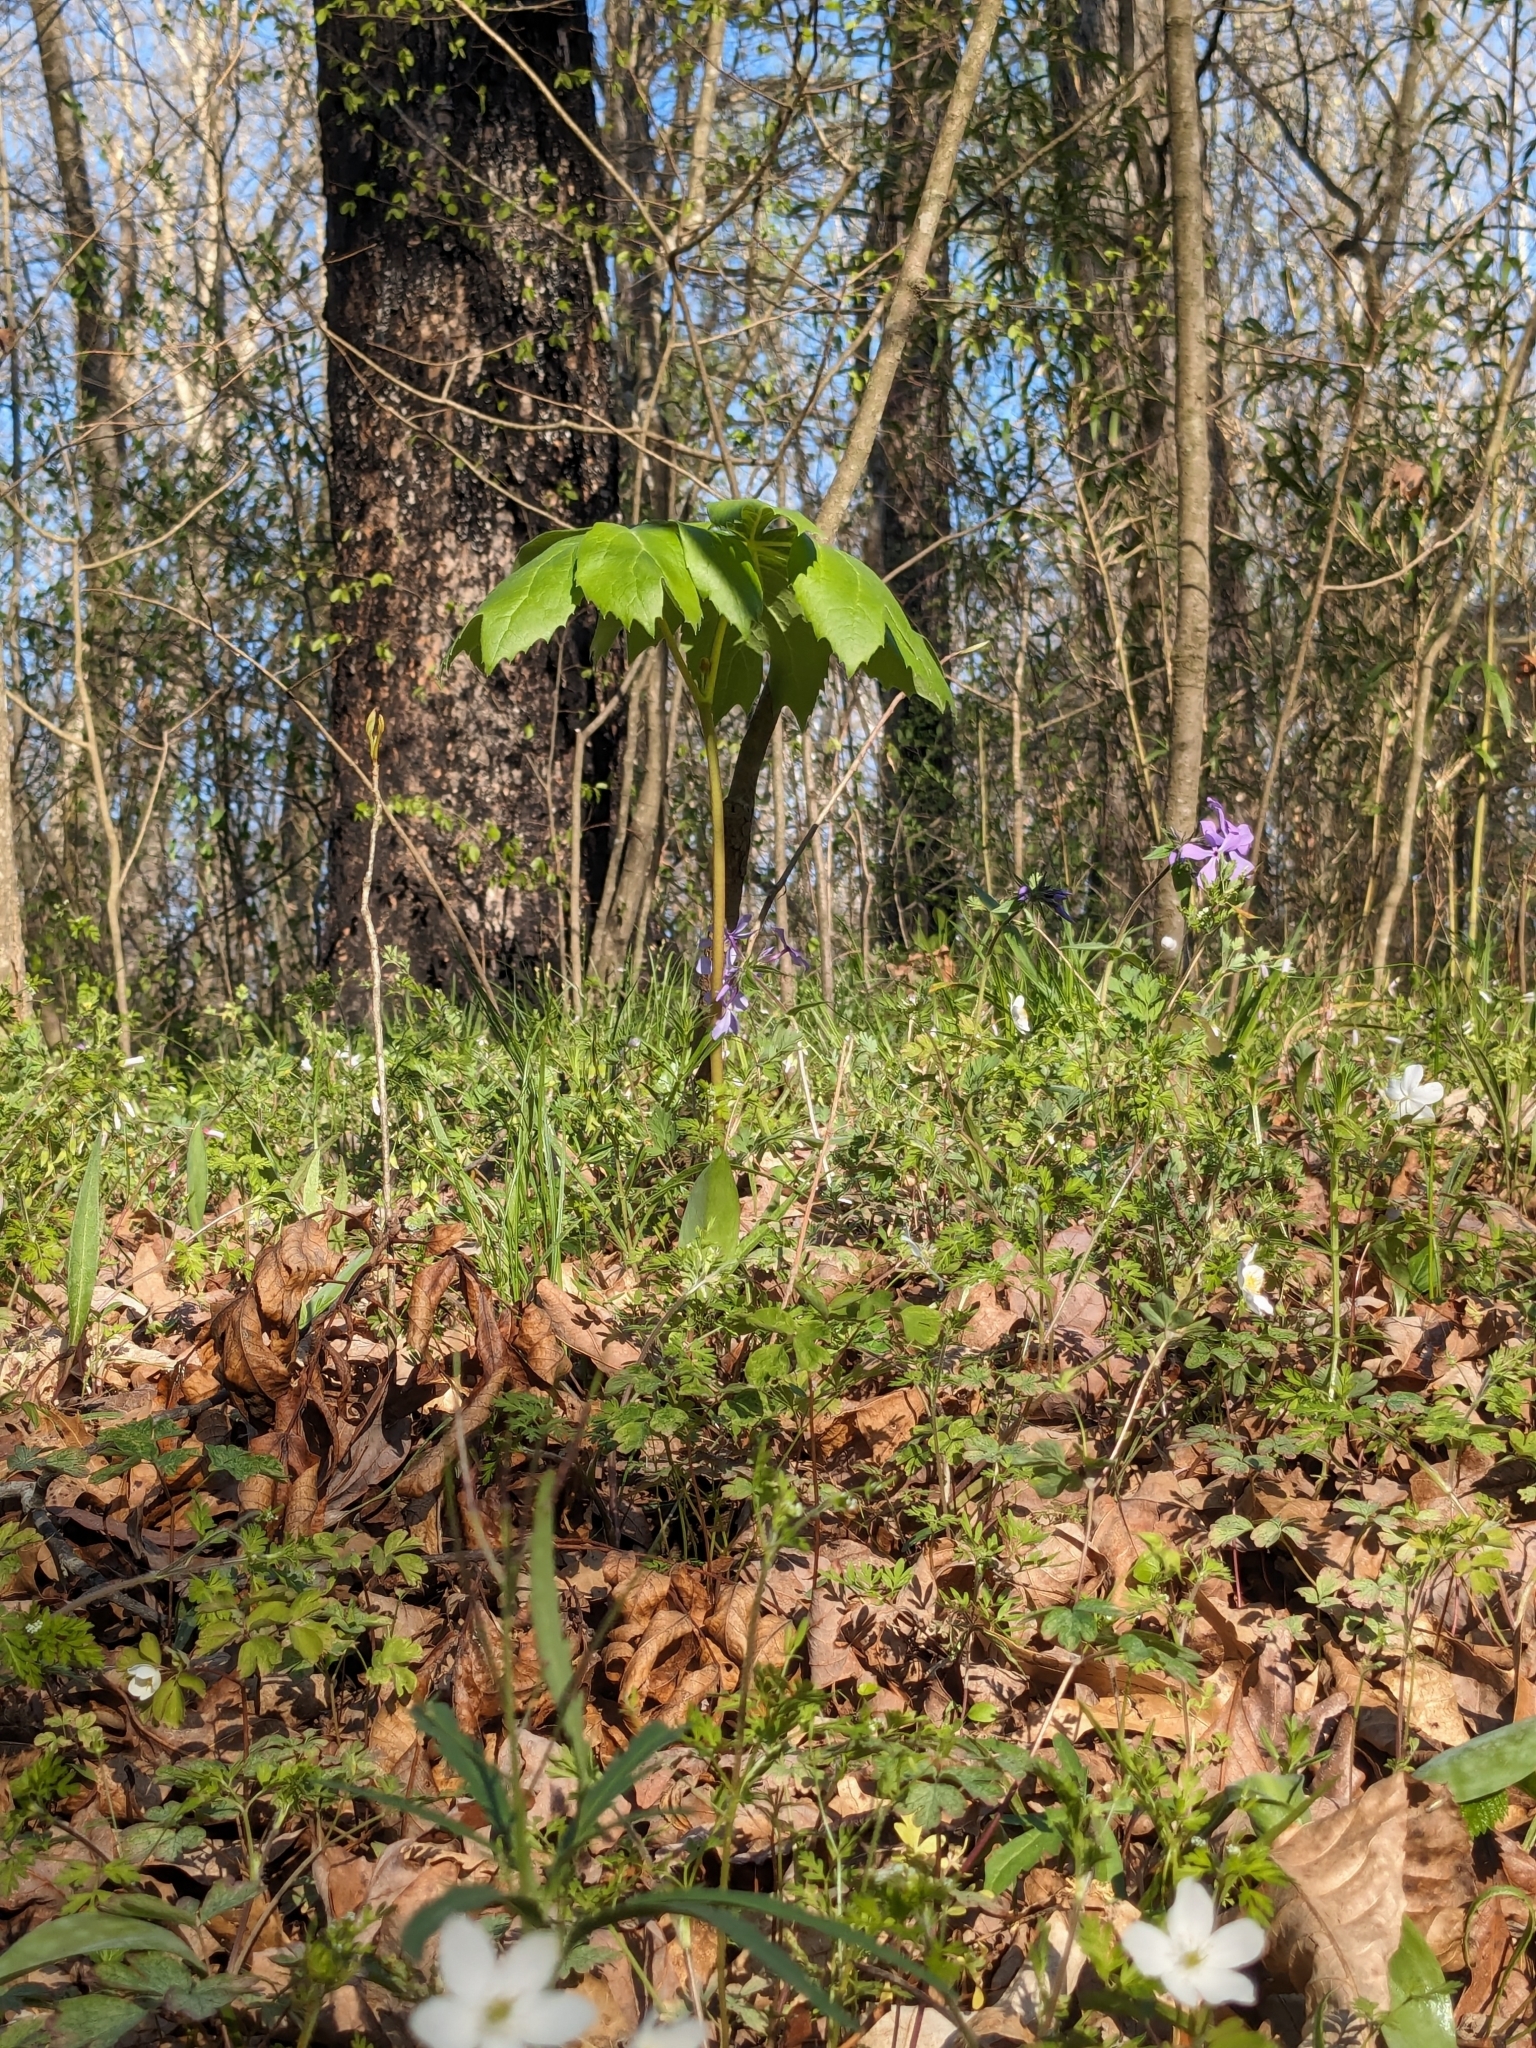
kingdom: Plantae
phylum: Tracheophyta
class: Magnoliopsida
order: Ranunculales
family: Berberidaceae
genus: Podophyllum
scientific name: Podophyllum peltatum
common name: Wild mandrake
